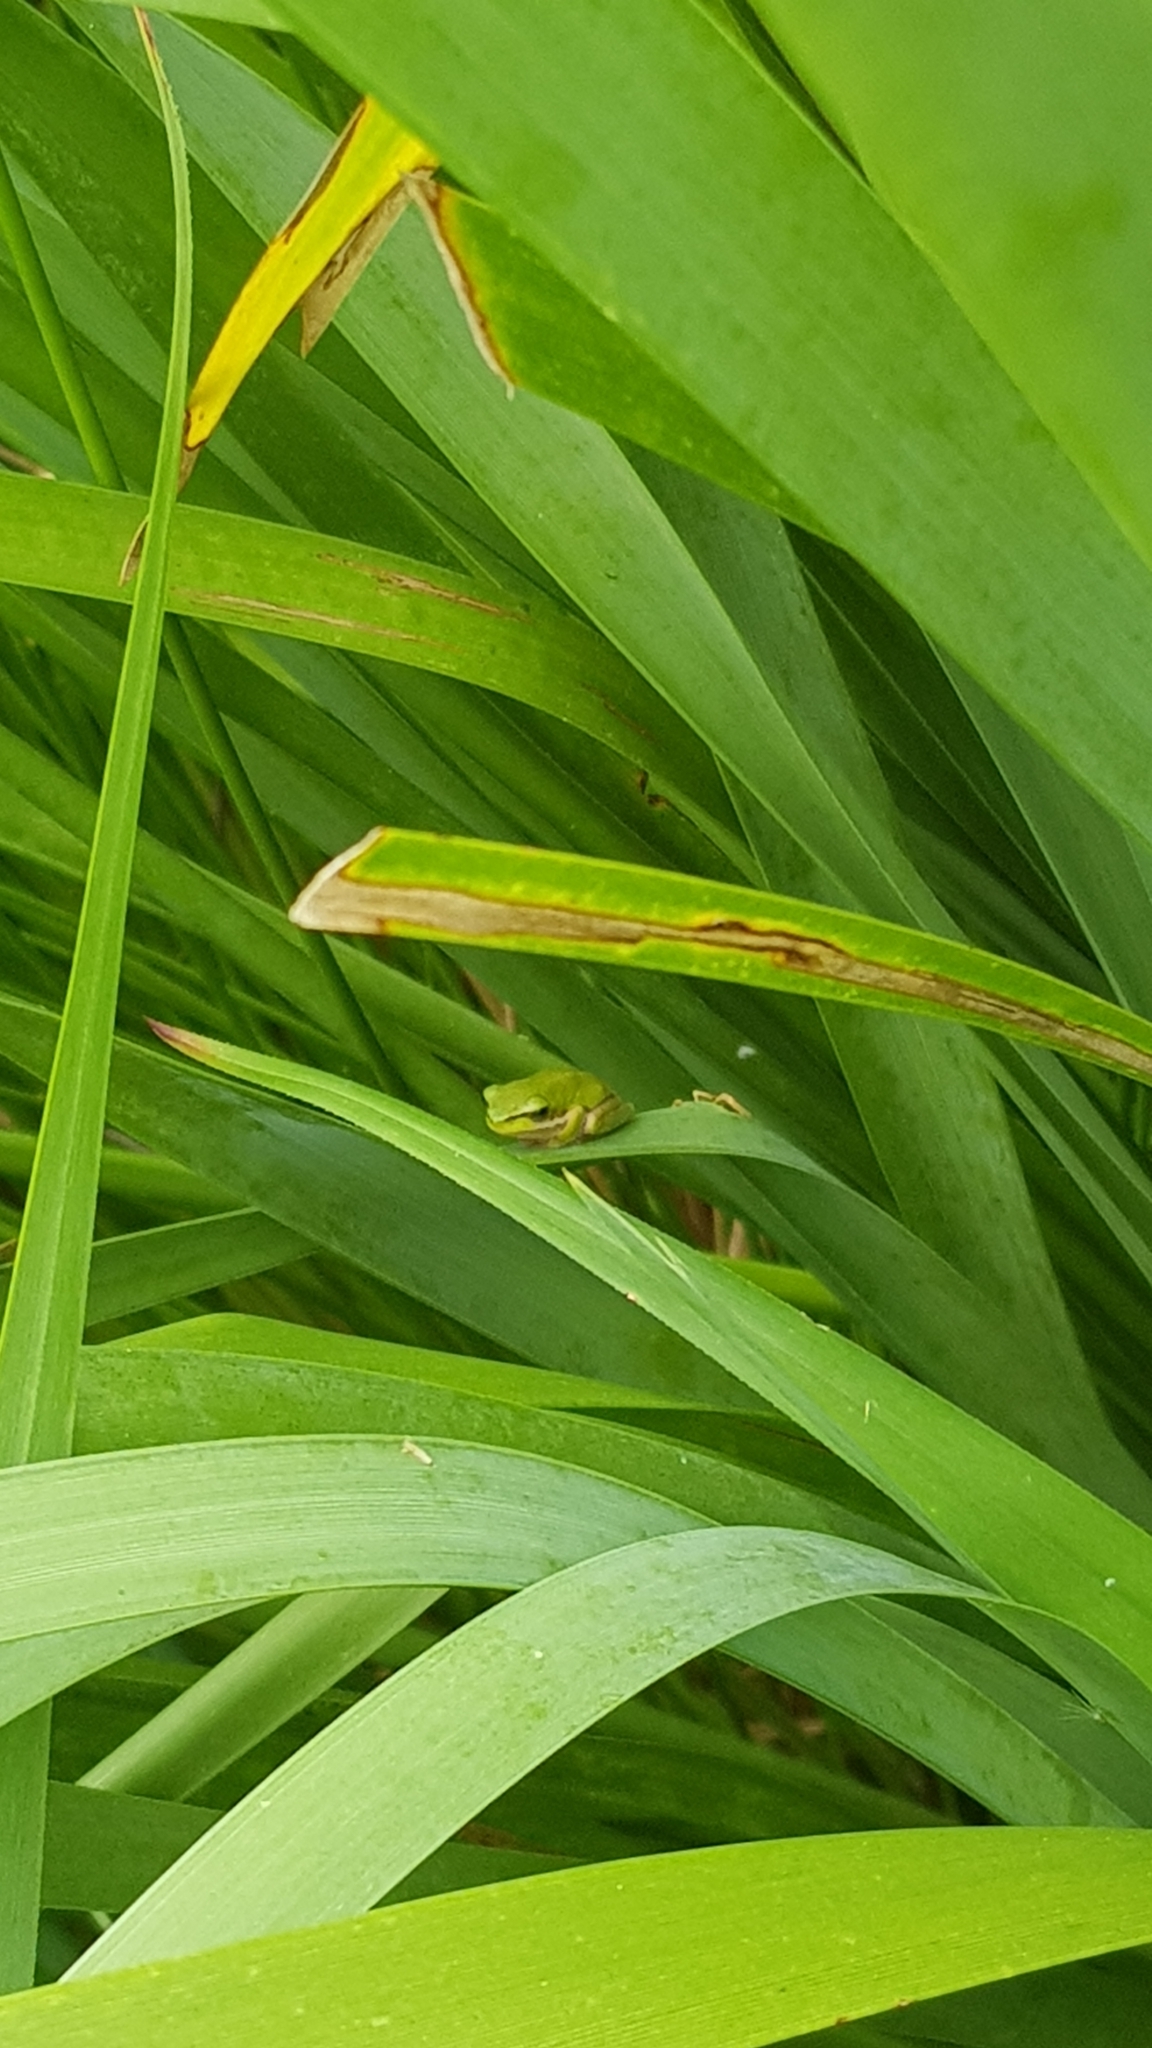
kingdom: Animalia
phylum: Chordata
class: Amphibia
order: Anura
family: Pelodryadidae
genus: Litoria
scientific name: Litoria fallax
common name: Eastern dwarf treefrog
